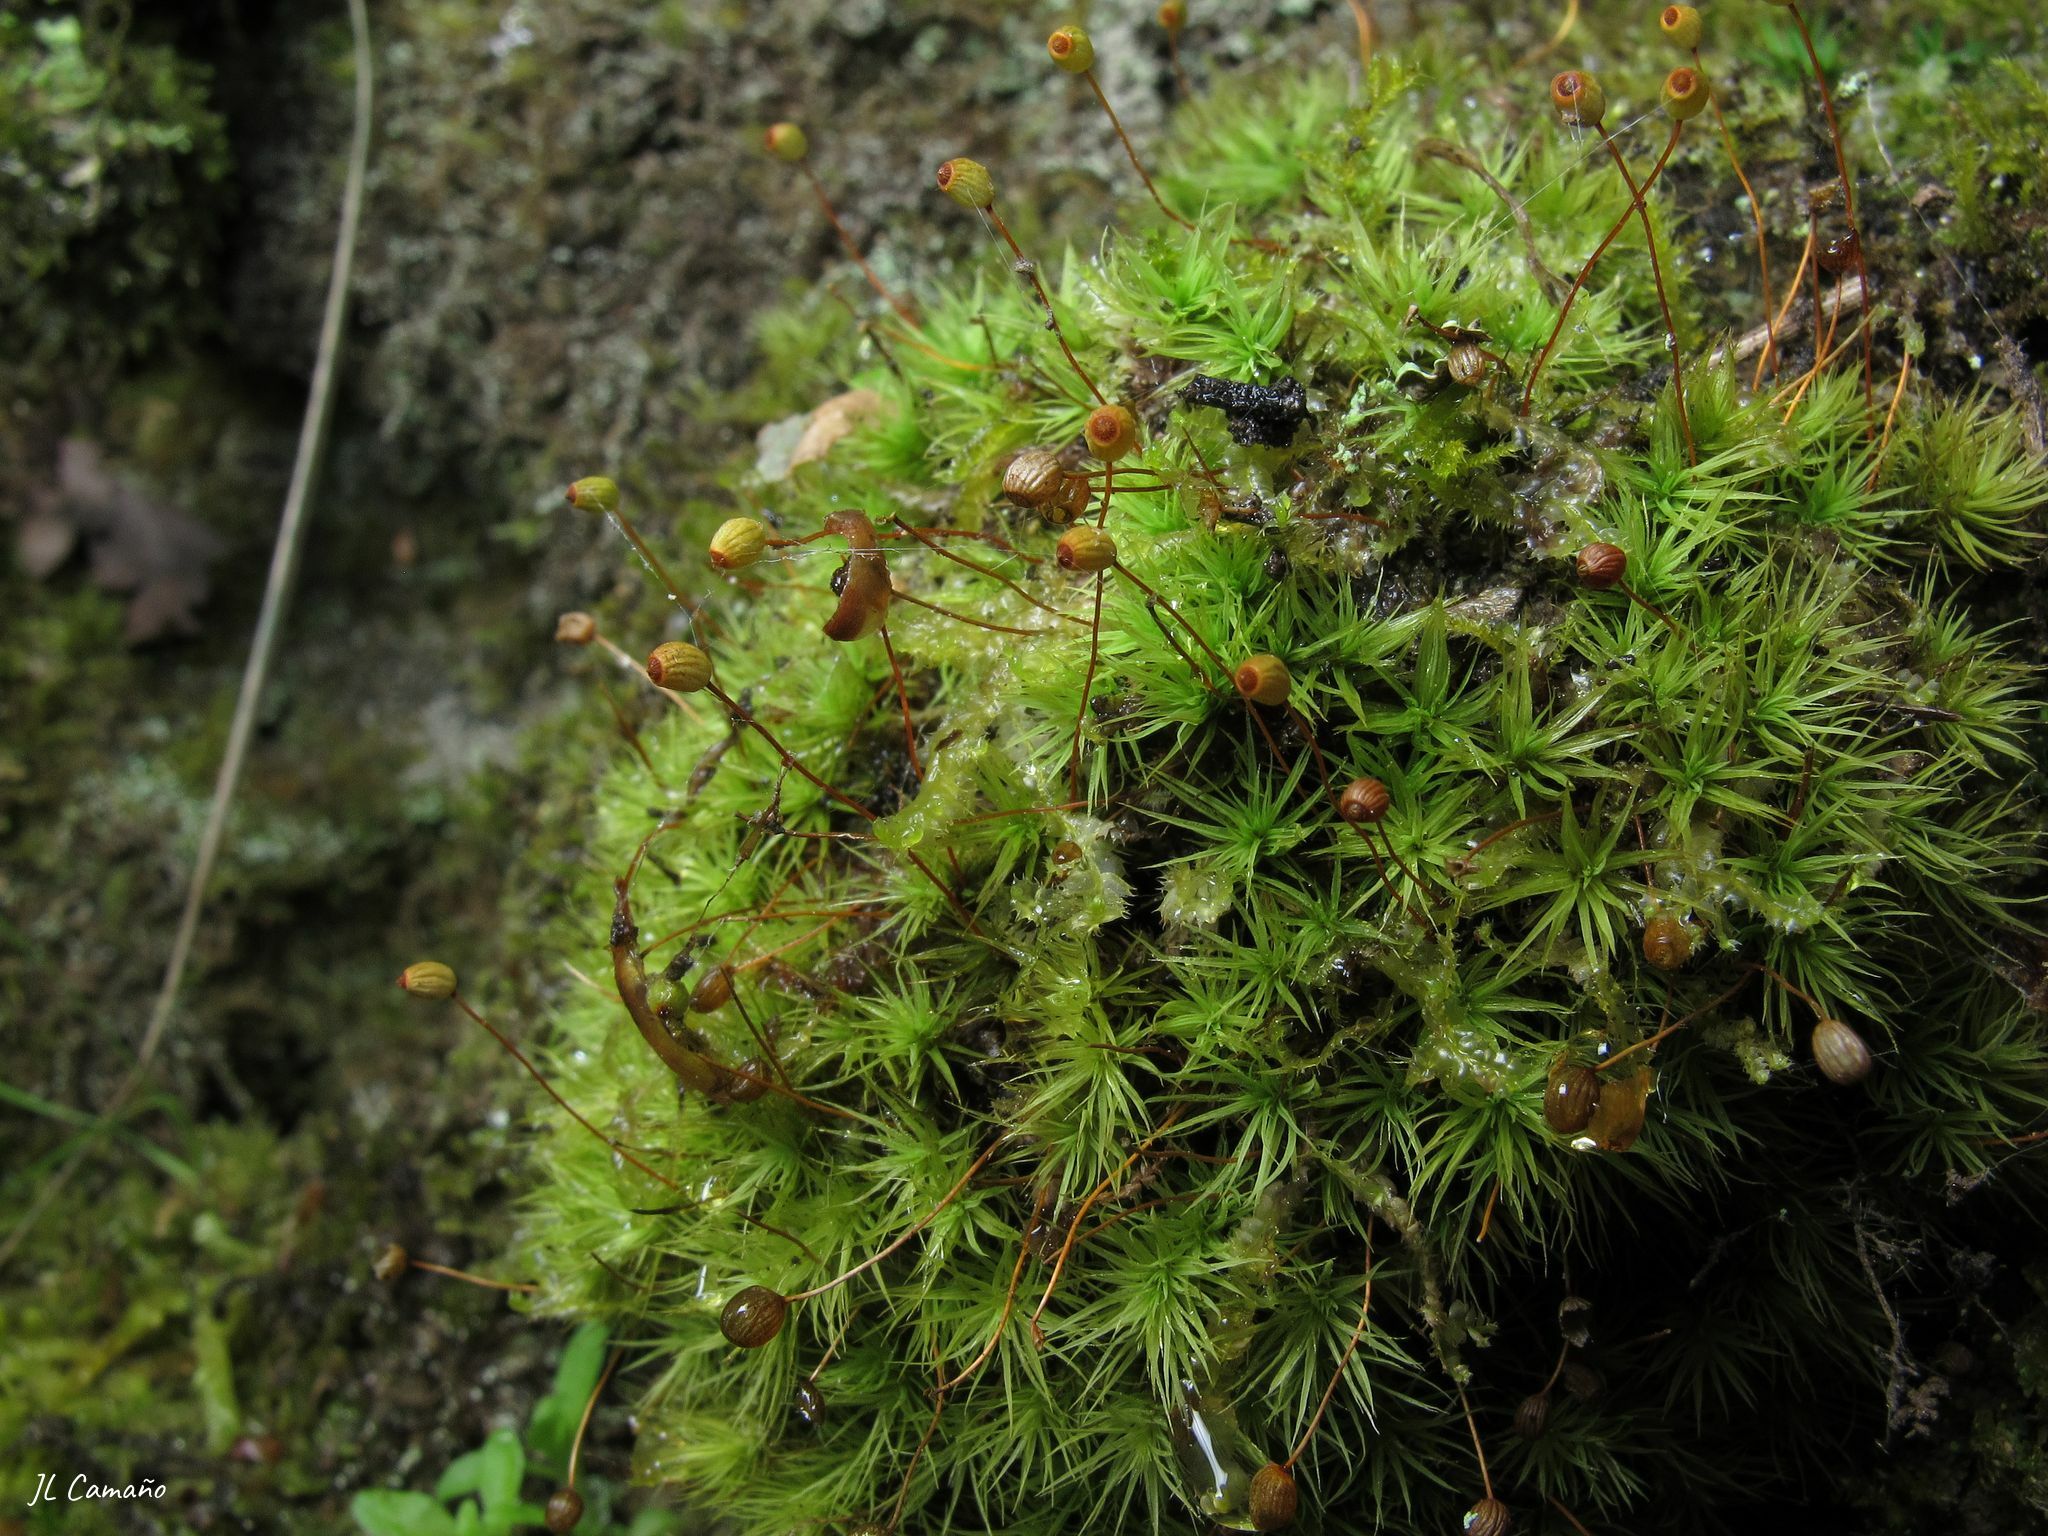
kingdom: Plantae
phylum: Bryophyta
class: Bryopsida
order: Bartramiales
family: Bartramiaceae
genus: Bartramia
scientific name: Bartramia ithyphylla
